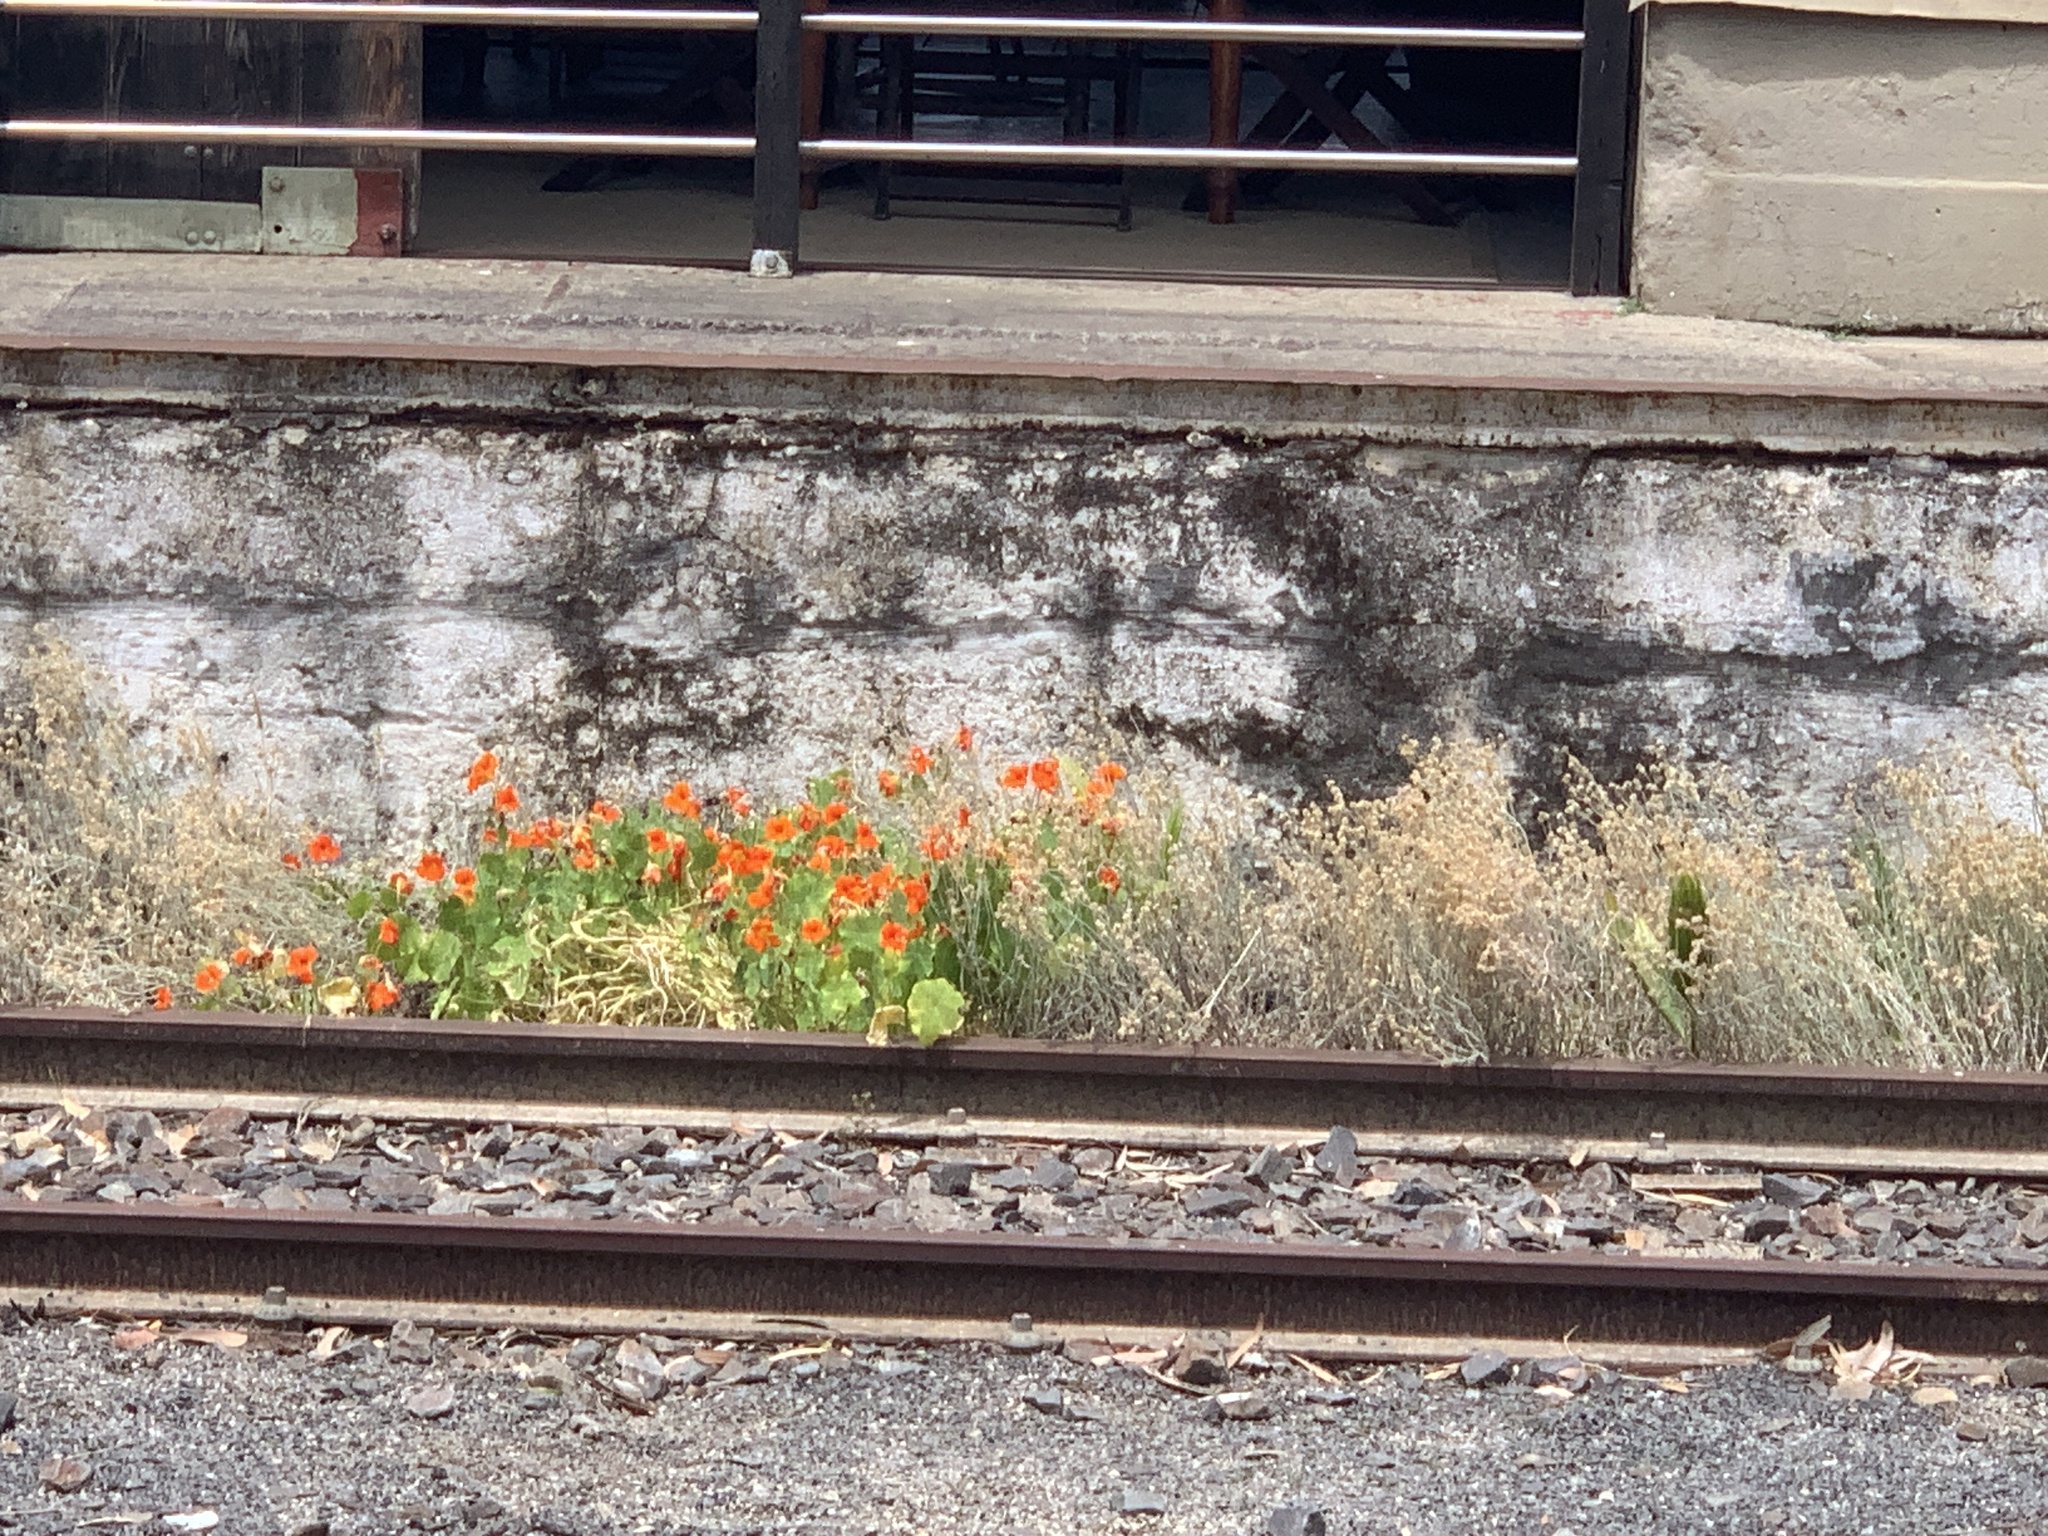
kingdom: Plantae
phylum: Tracheophyta
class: Magnoliopsida
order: Brassicales
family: Tropaeolaceae
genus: Tropaeolum
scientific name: Tropaeolum majus
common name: Nasturtium
